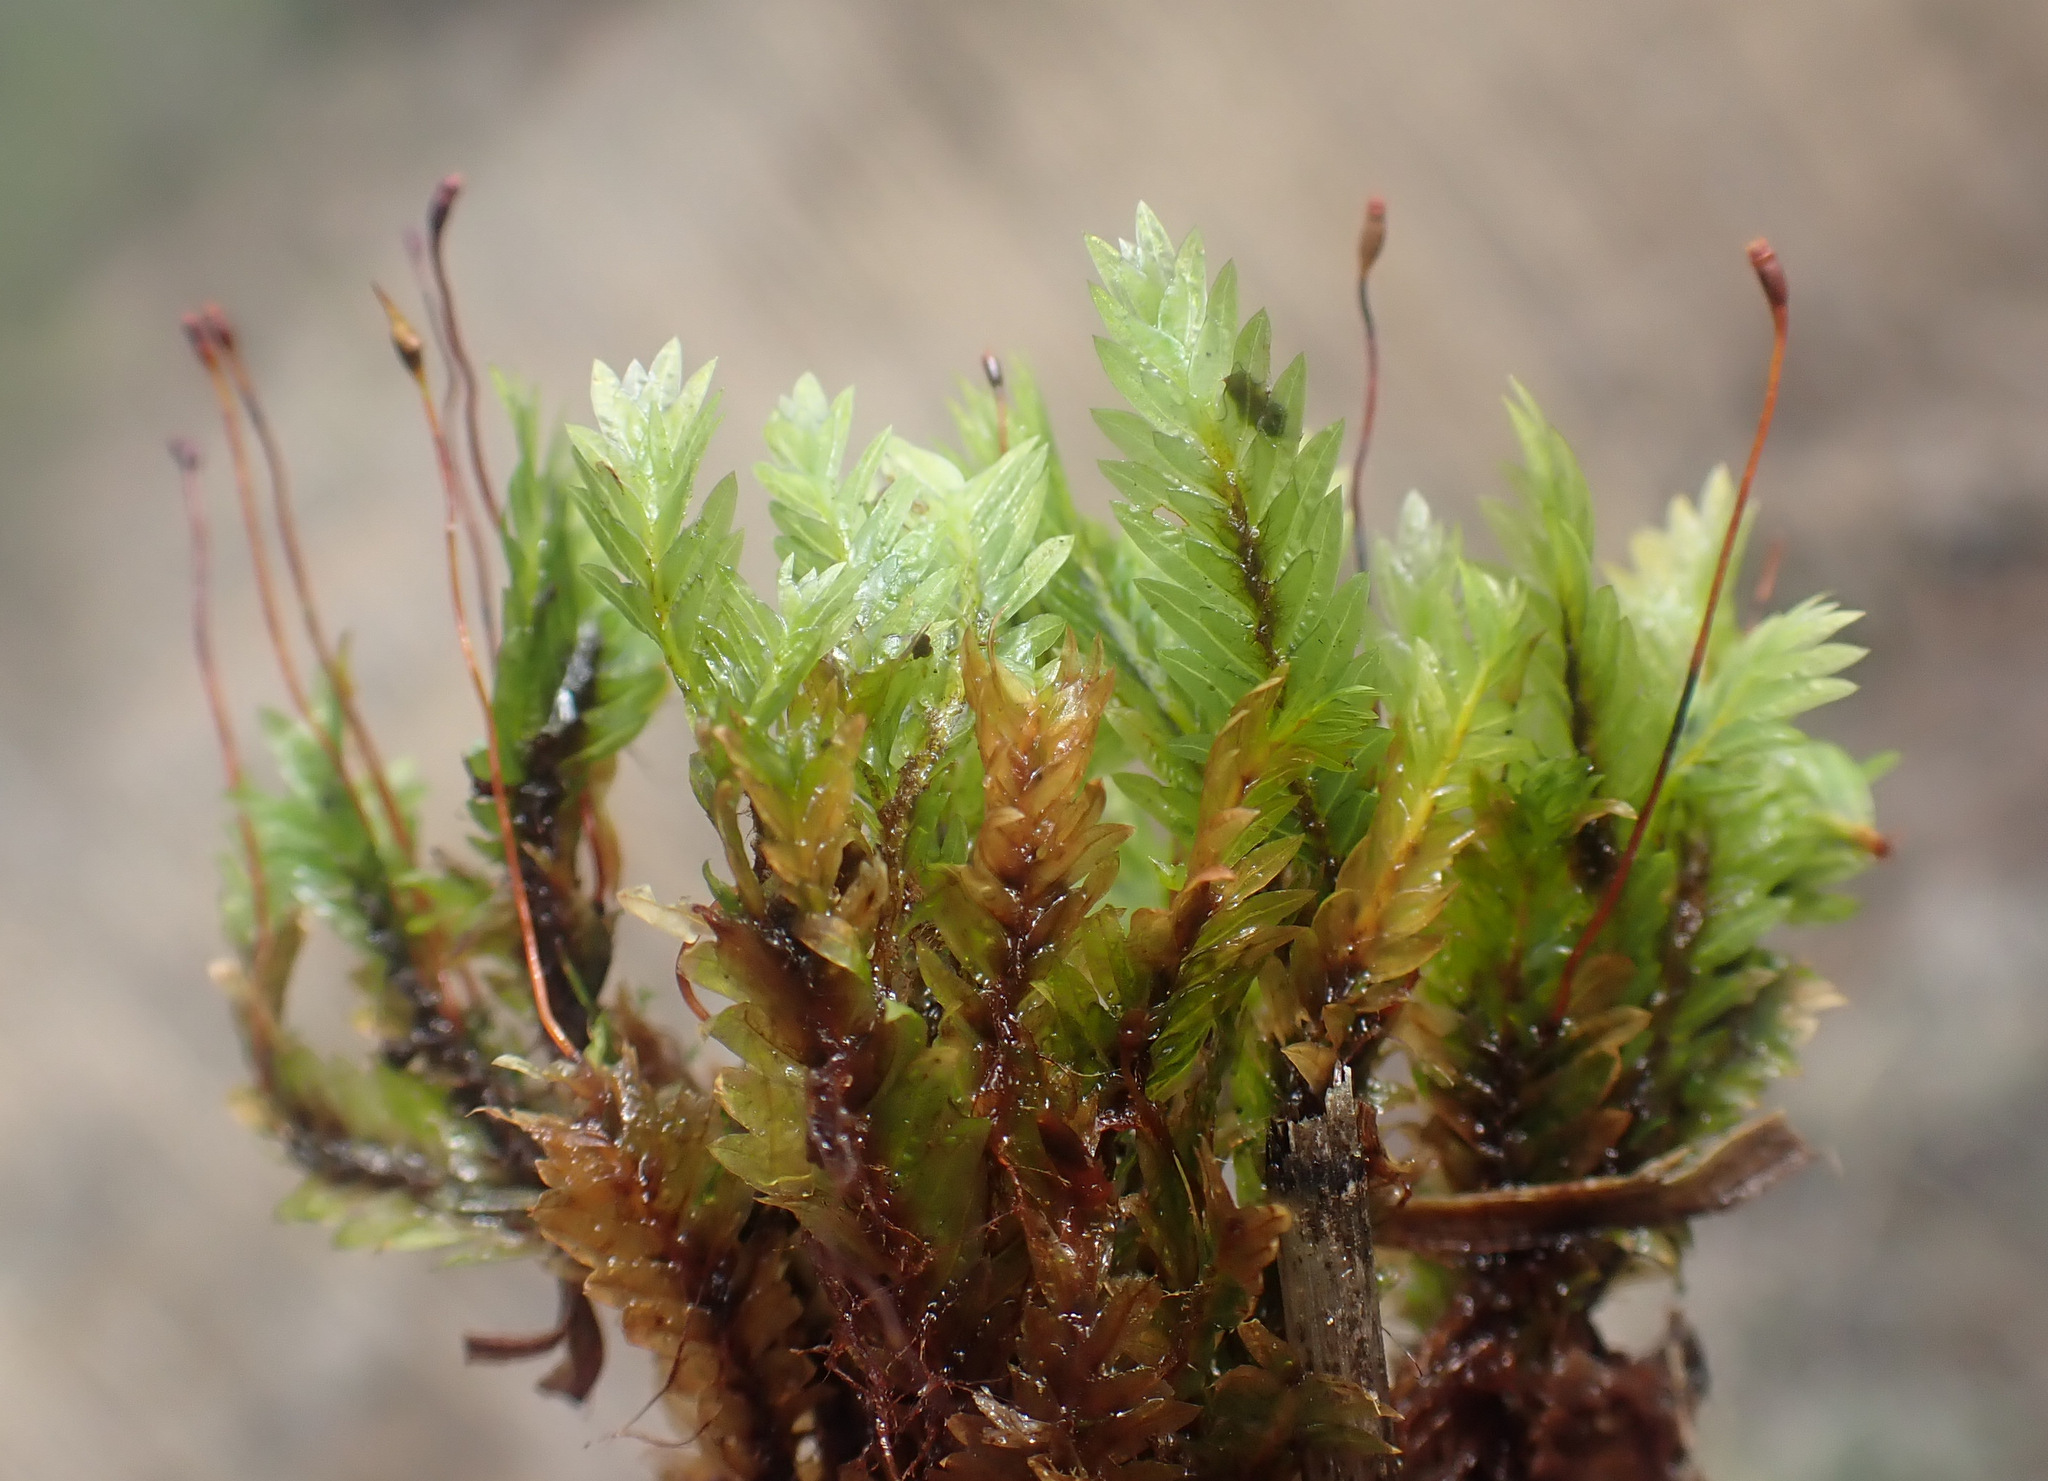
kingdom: Plantae
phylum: Bryophyta
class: Bryopsida
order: Dicranales
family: Fissidentaceae
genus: Fissidens
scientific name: Fissidens adianthoides
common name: Maidenhair pocket moss
